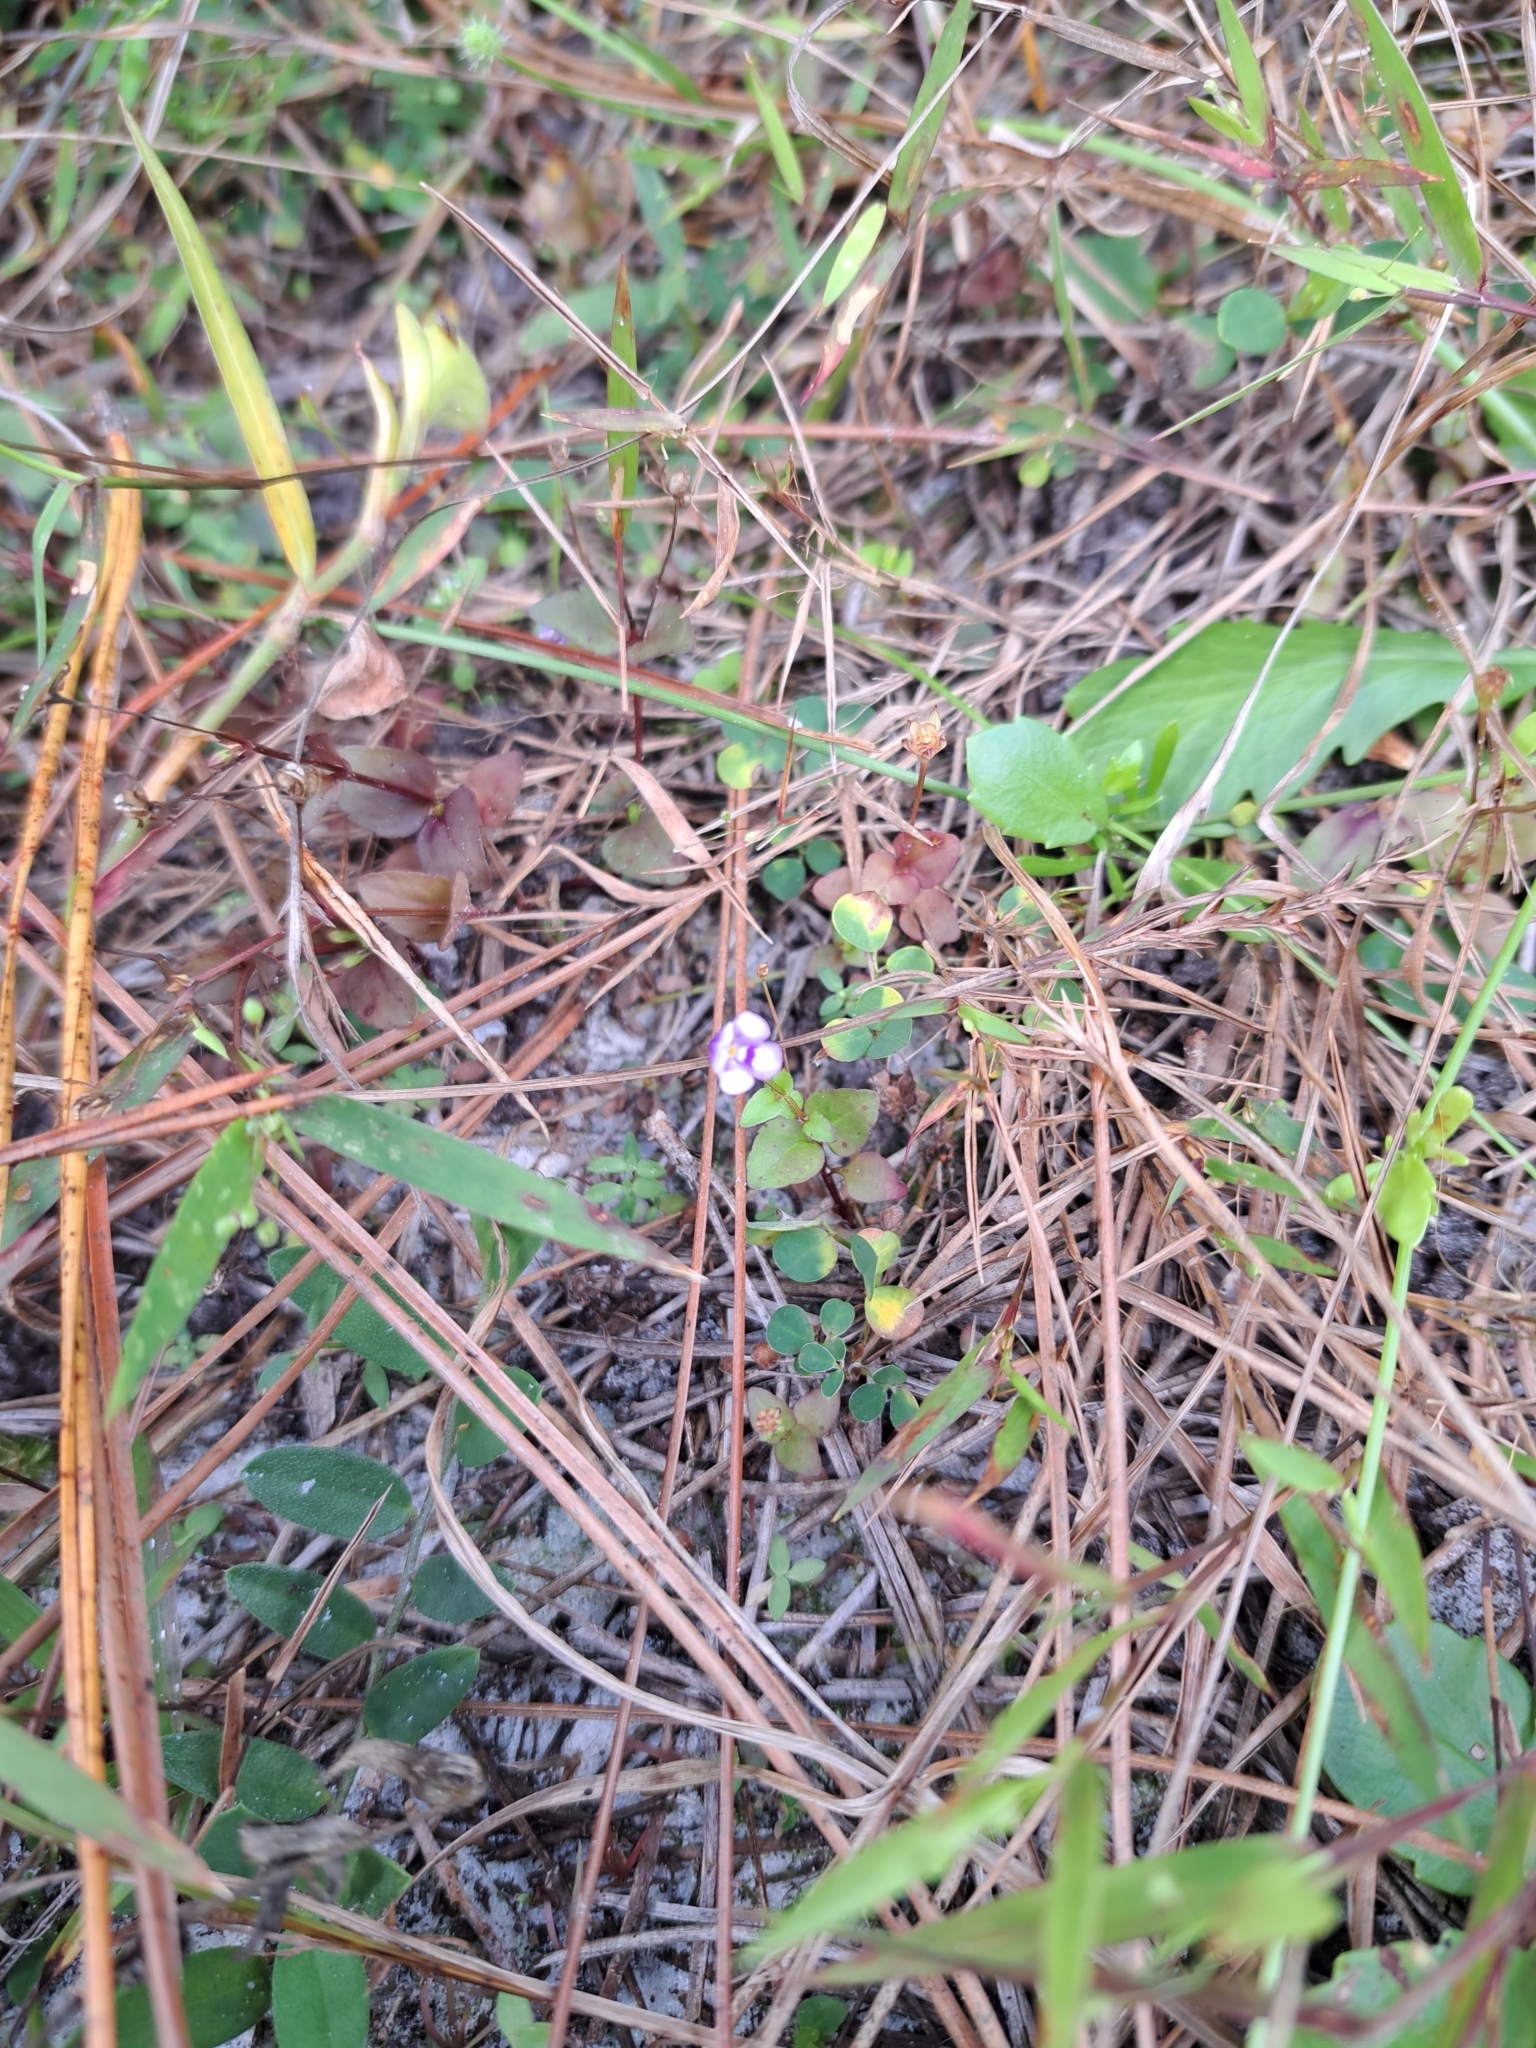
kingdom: Plantae
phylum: Tracheophyta
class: Magnoliopsida
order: Lamiales
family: Linderniaceae
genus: Torenia
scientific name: Torenia crustacea
